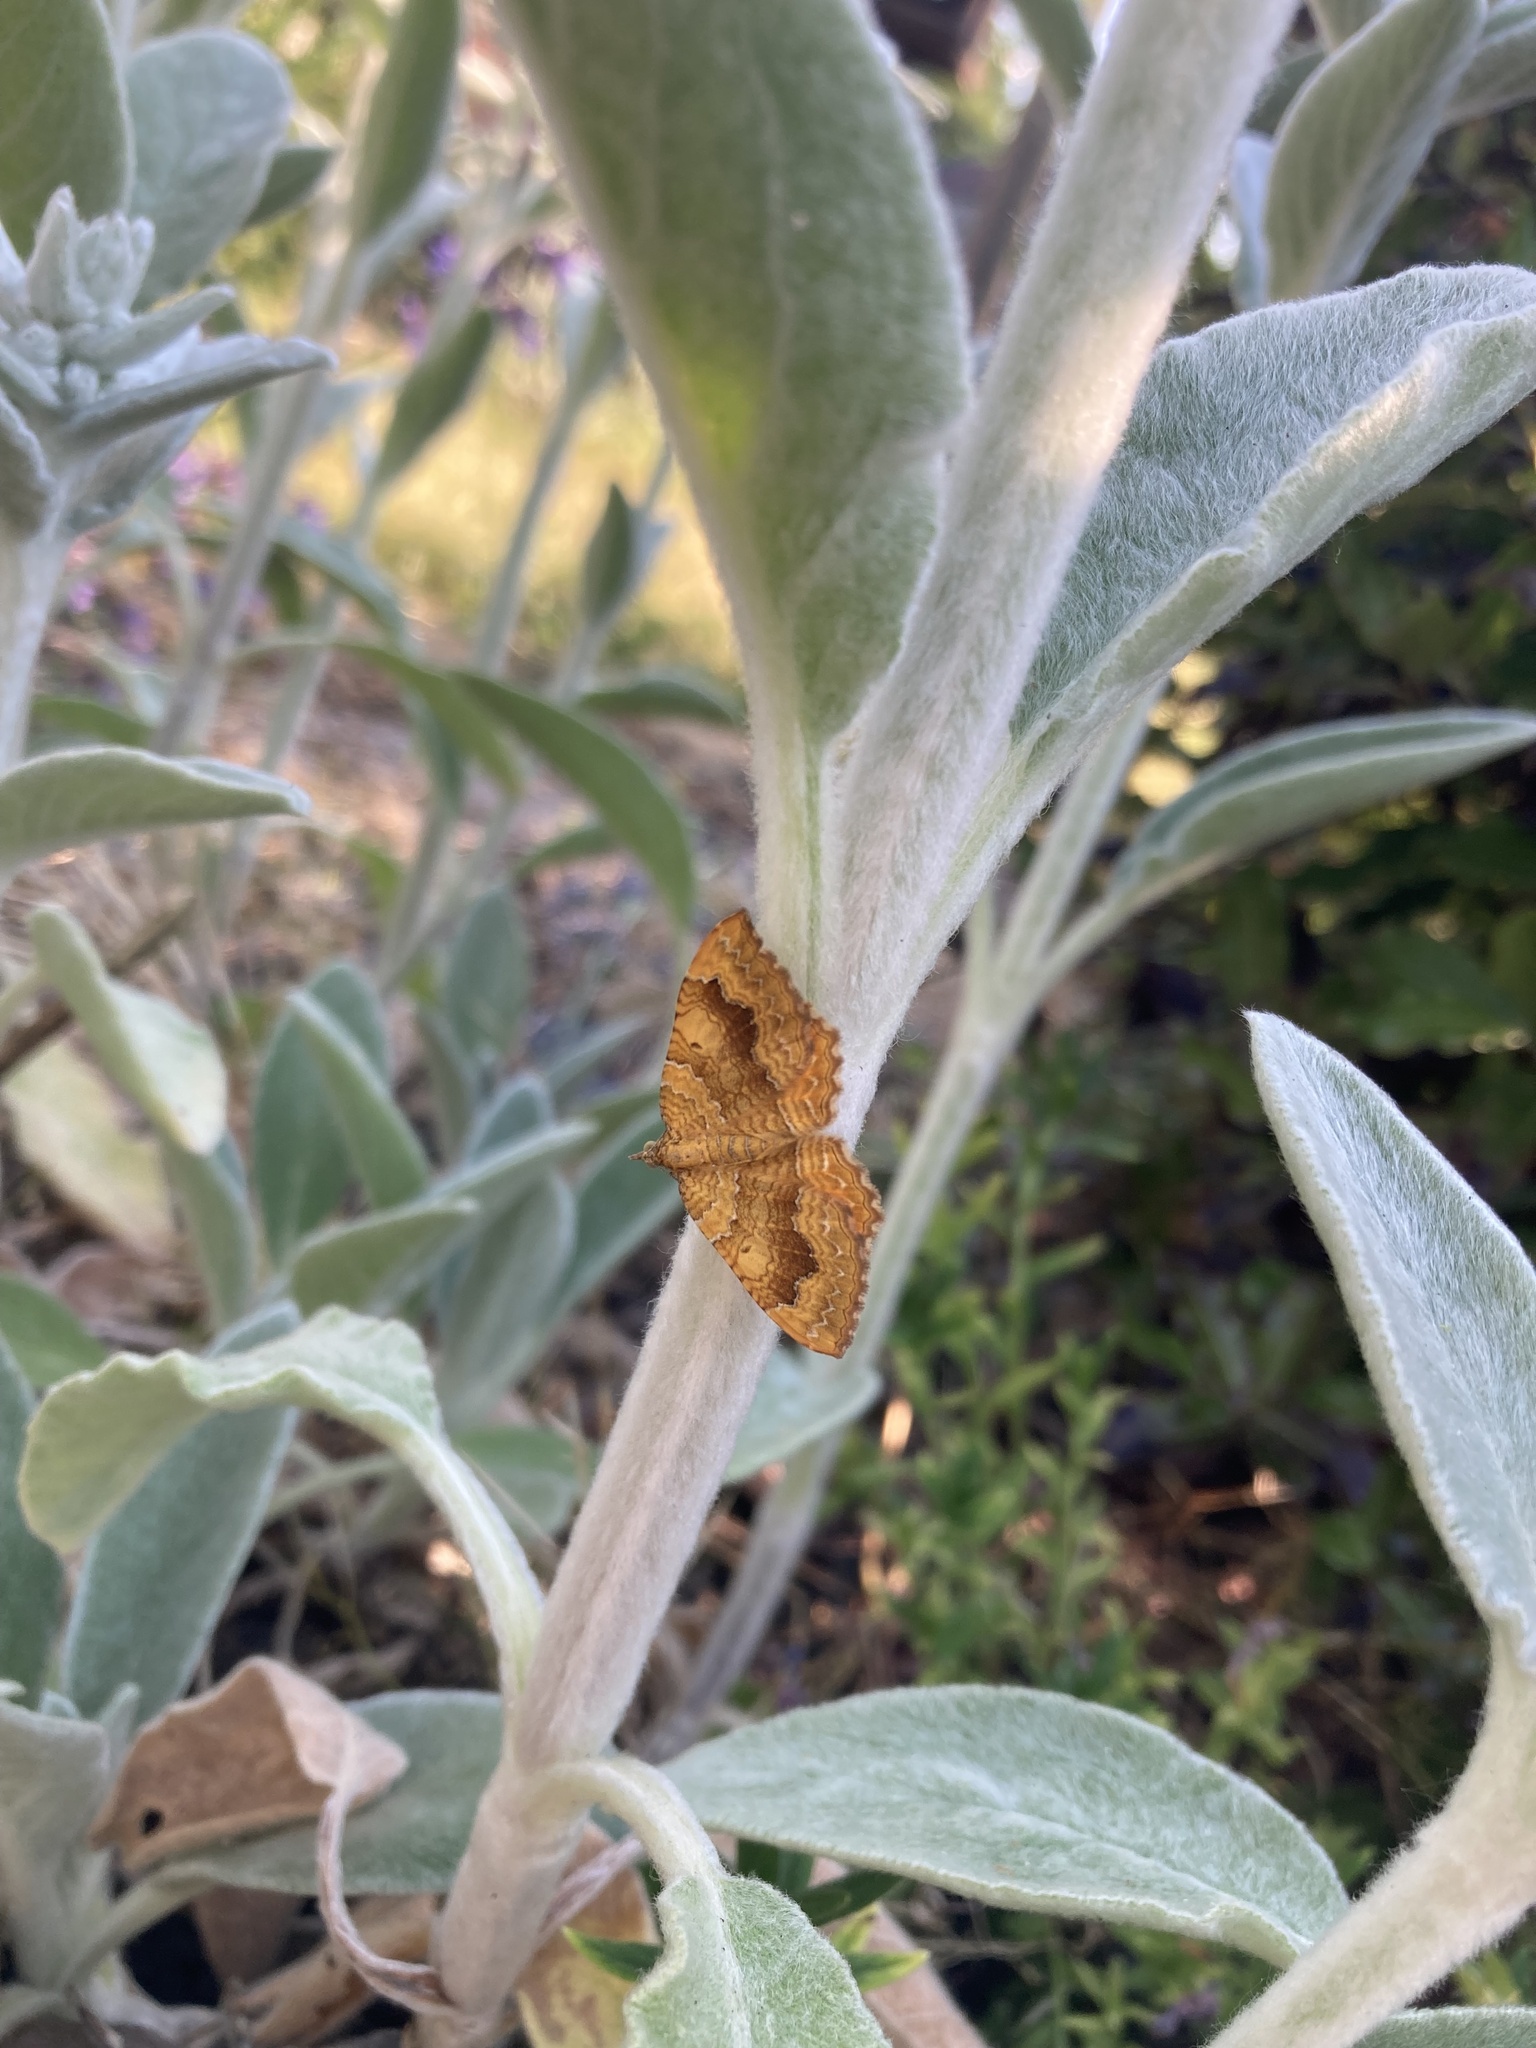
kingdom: Animalia
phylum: Arthropoda
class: Insecta
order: Lepidoptera
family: Geometridae
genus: Camptogramma
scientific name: Camptogramma bilineata
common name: Yellow shell
